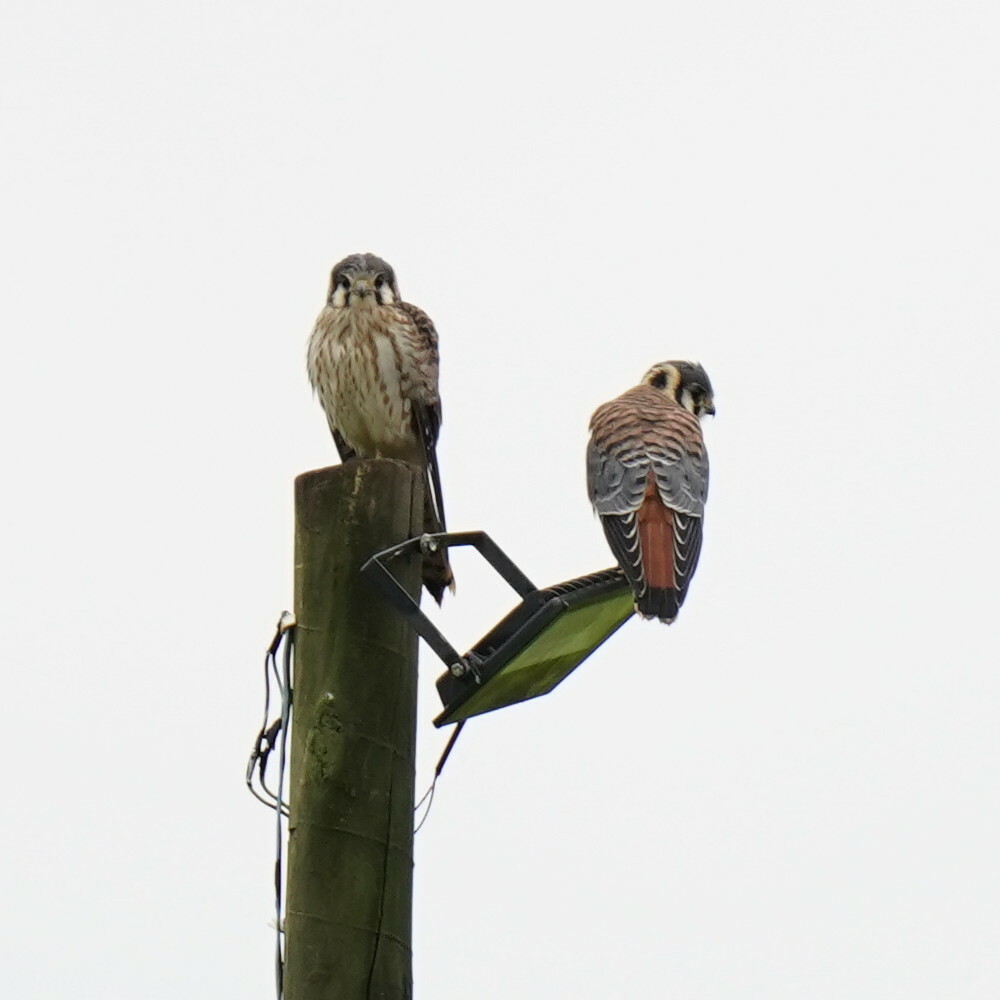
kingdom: Animalia
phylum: Chordata
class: Aves
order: Falconiformes
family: Falconidae
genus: Falco
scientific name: Falco sparverius
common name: American kestrel
